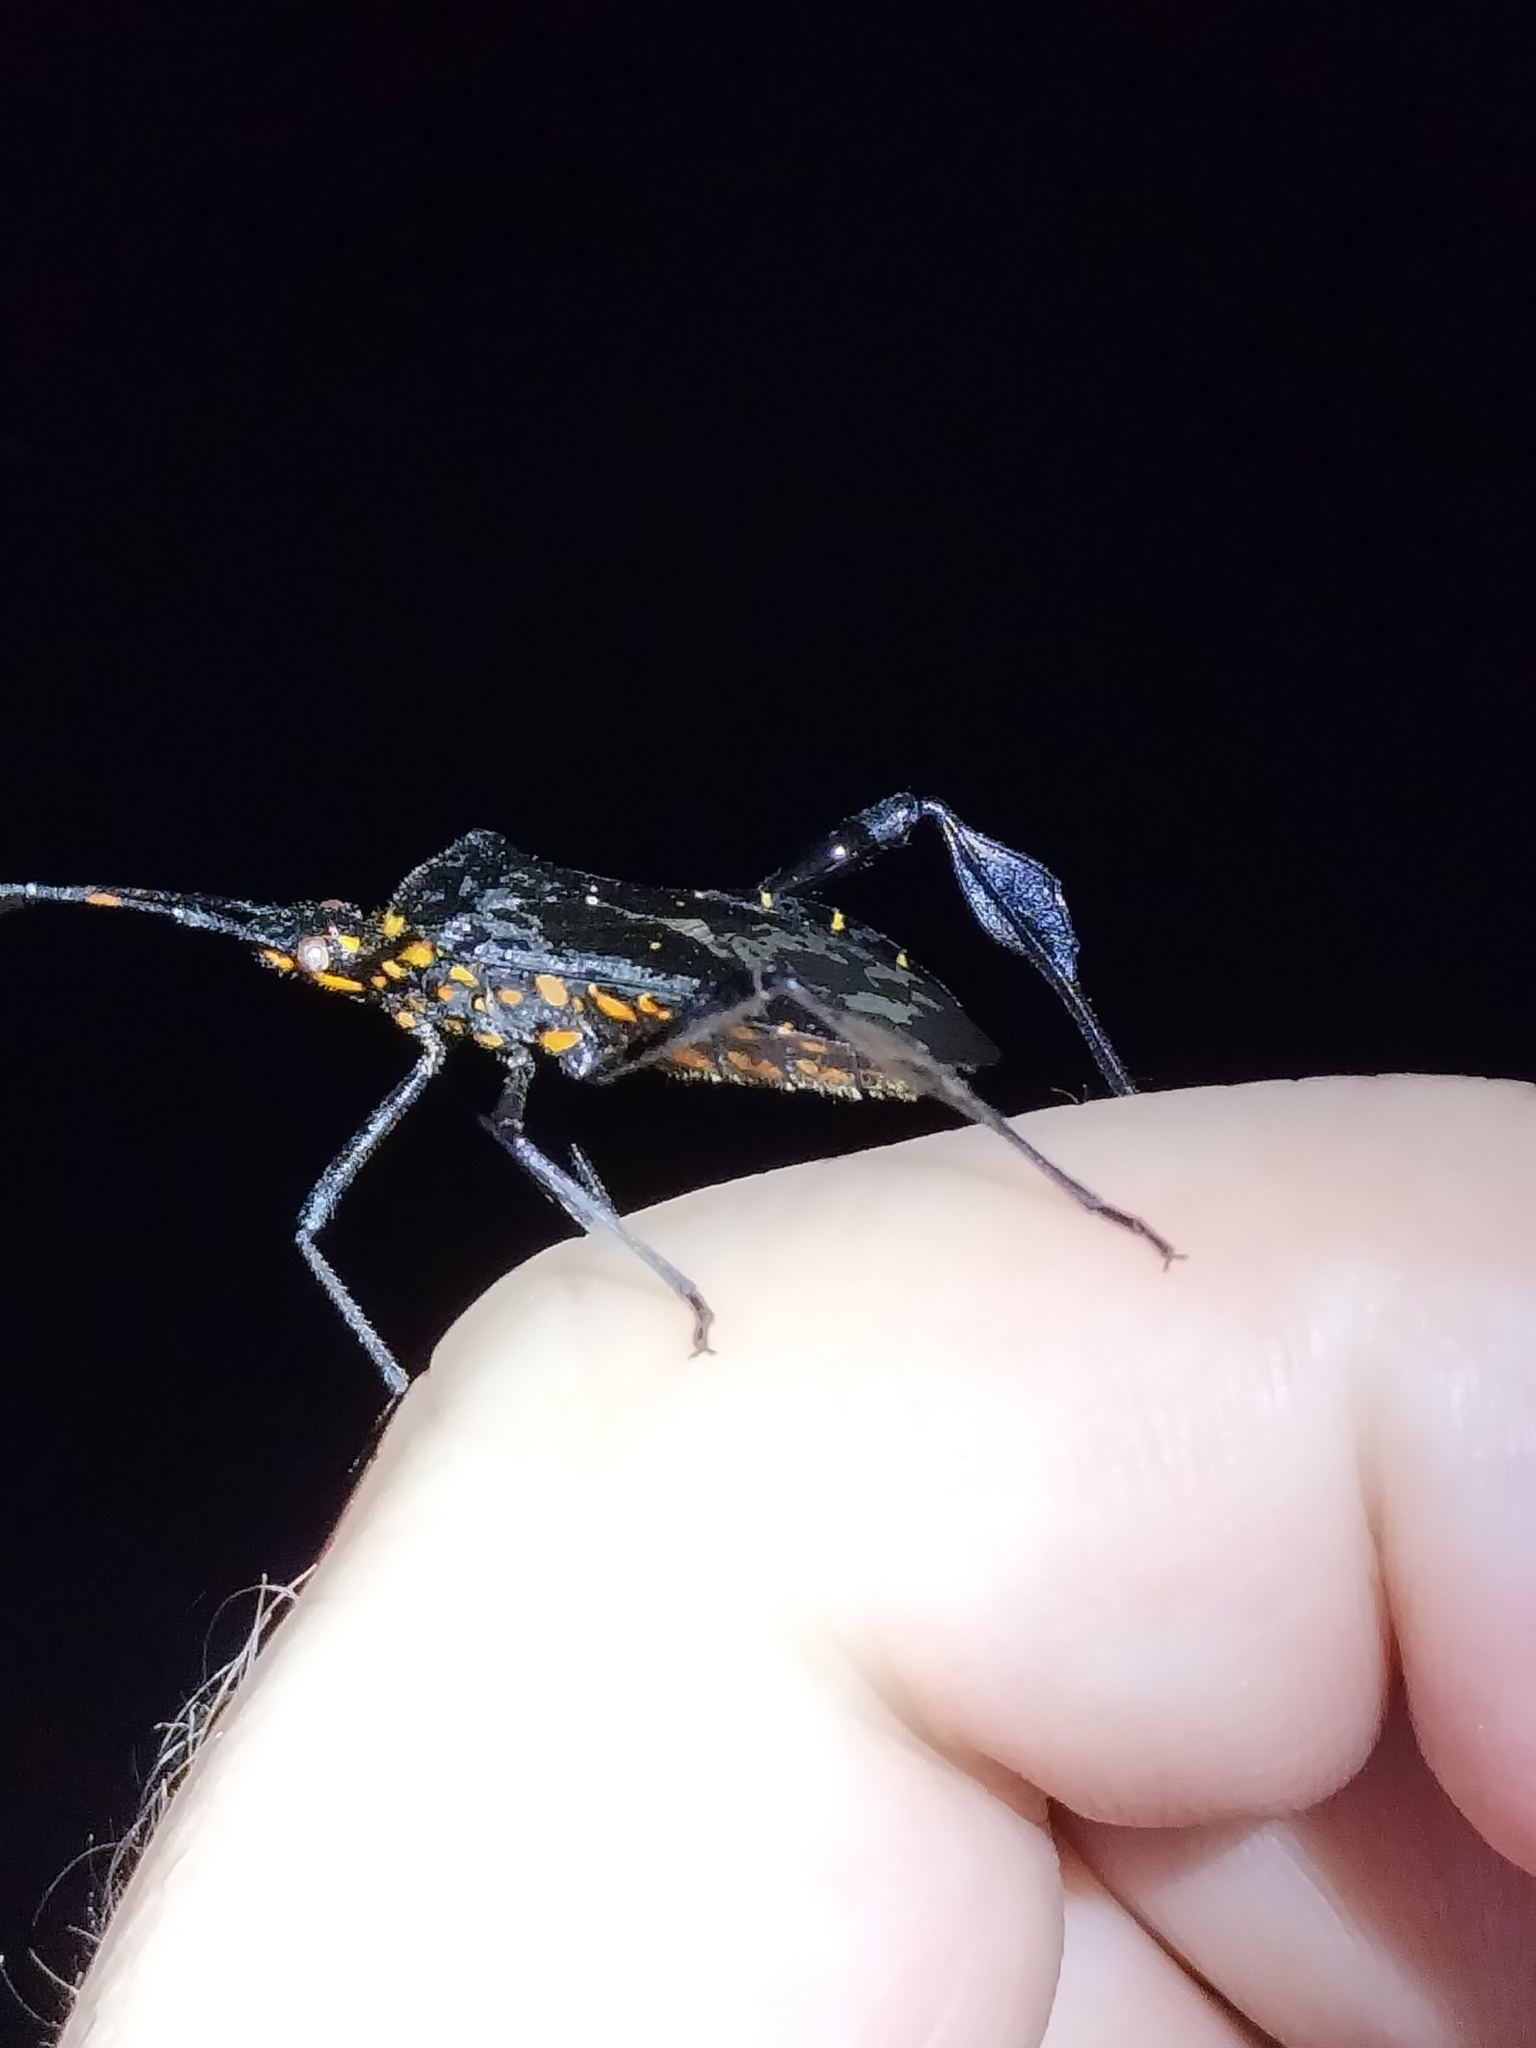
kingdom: Animalia
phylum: Arthropoda
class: Insecta
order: Hemiptera
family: Coreidae
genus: Leptoglossus
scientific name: Leptoglossus gonagra
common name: Citron bug
